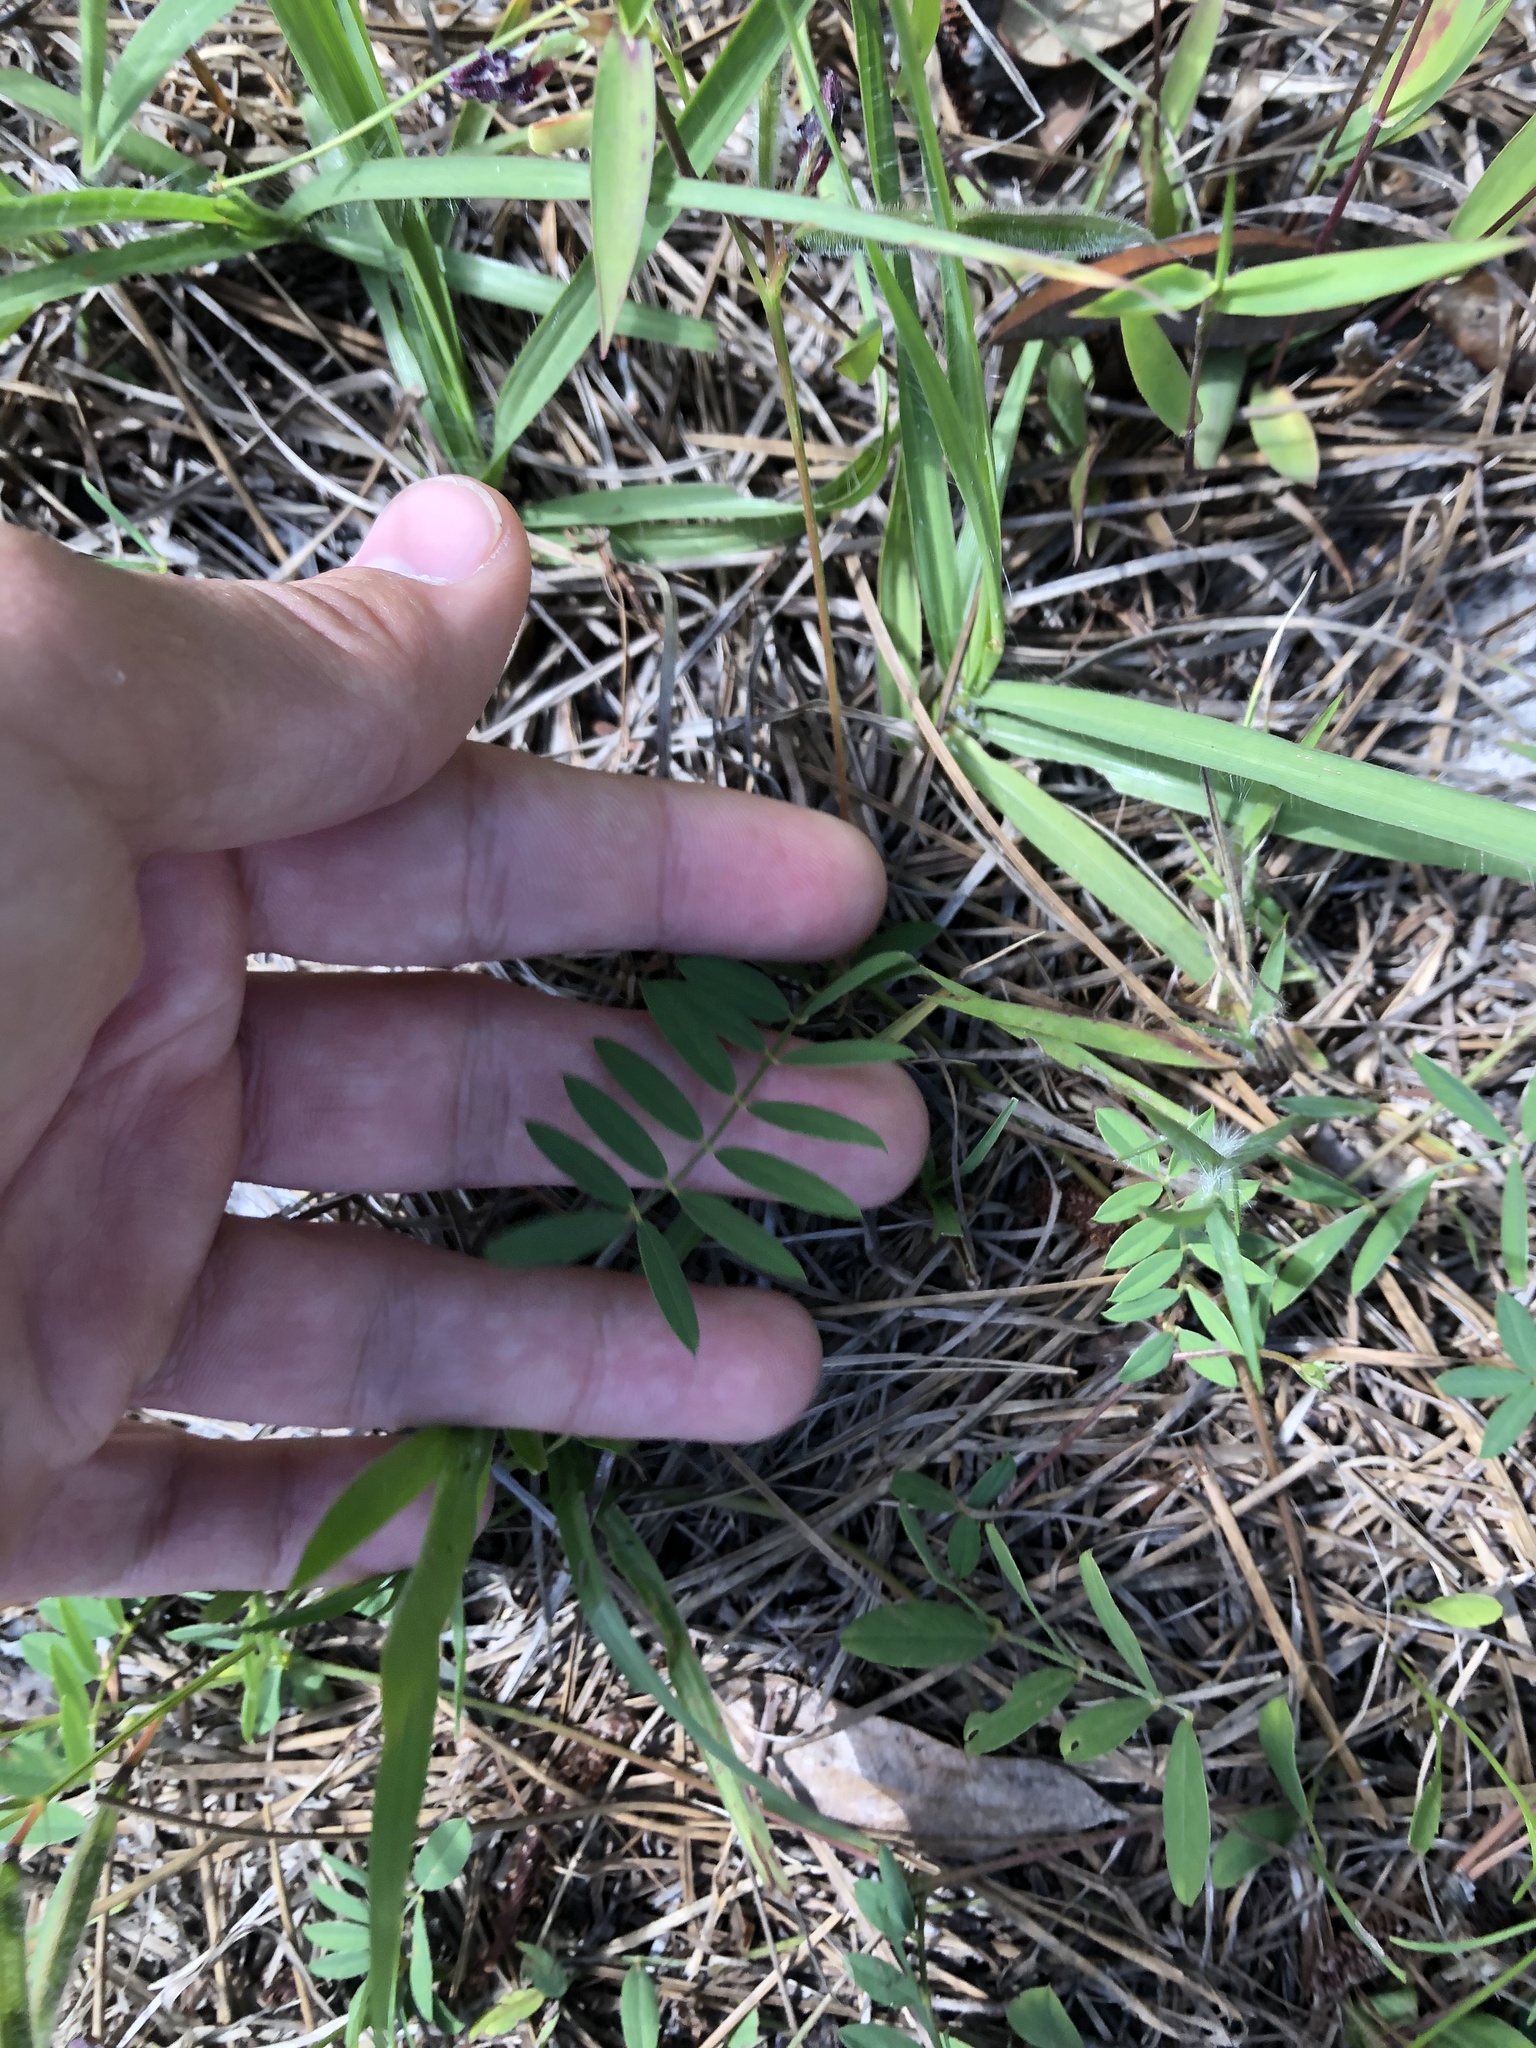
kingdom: Plantae
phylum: Tracheophyta
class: Magnoliopsida
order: Fabales
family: Fabaceae
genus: Vicia
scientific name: Vicia sativa
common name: Garden vetch
